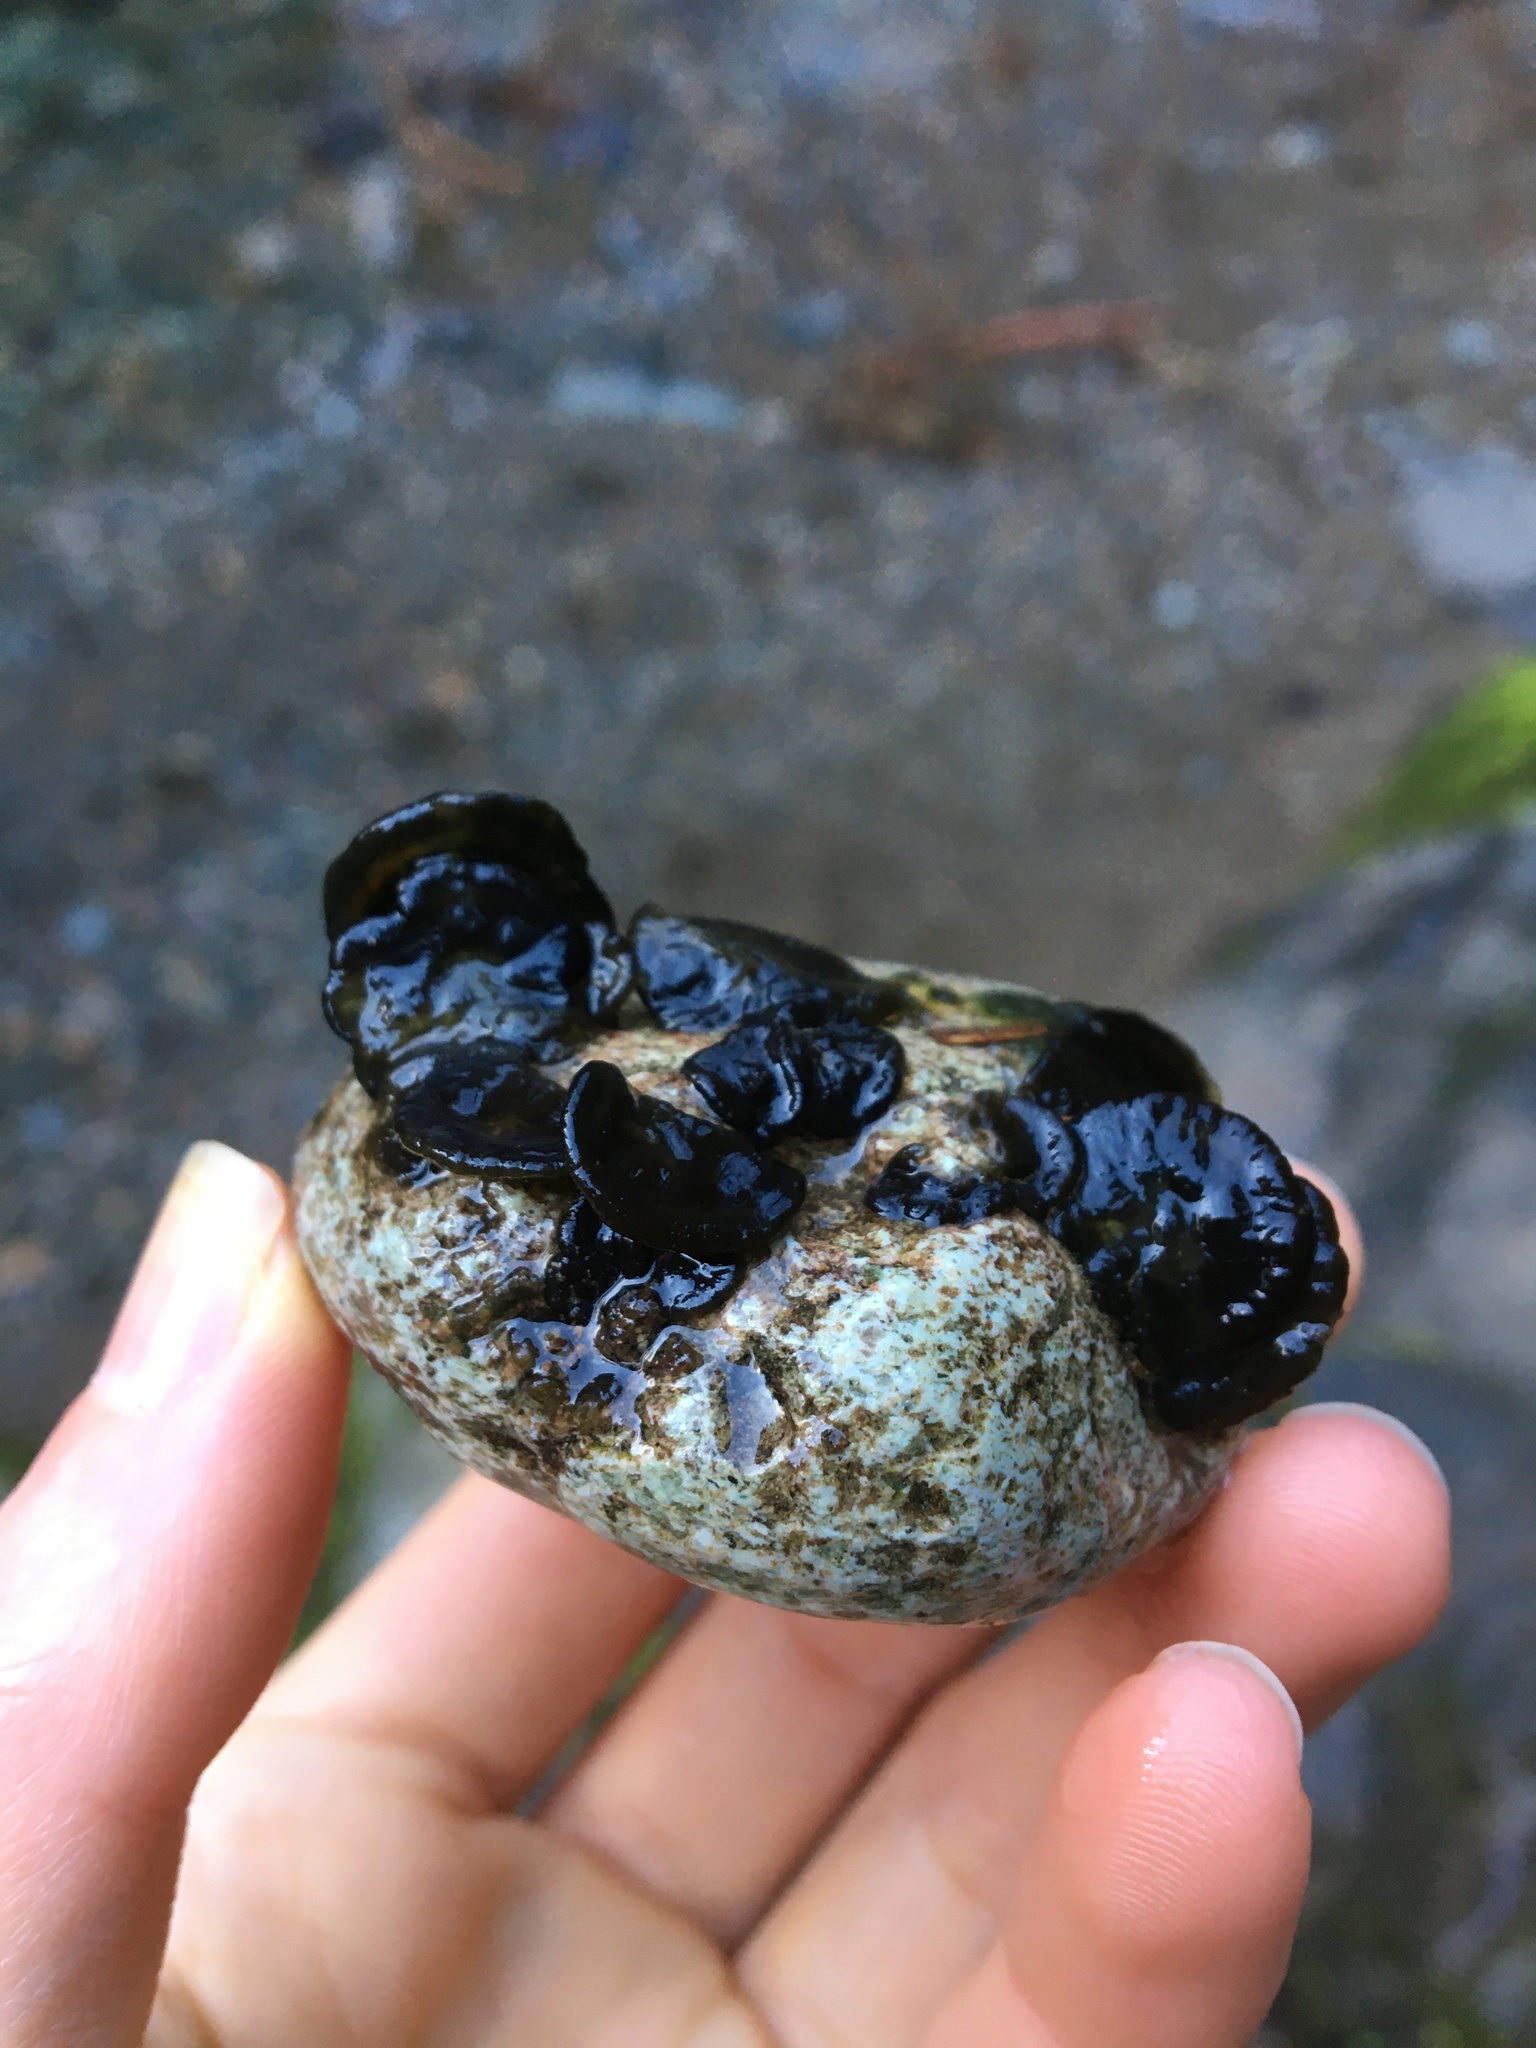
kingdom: Bacteria
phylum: Cyanobacteria
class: Cyanobacteriia
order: Cyanobacteriales
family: Nostocaceae
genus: Nostoc
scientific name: Nostoc parmelioides
